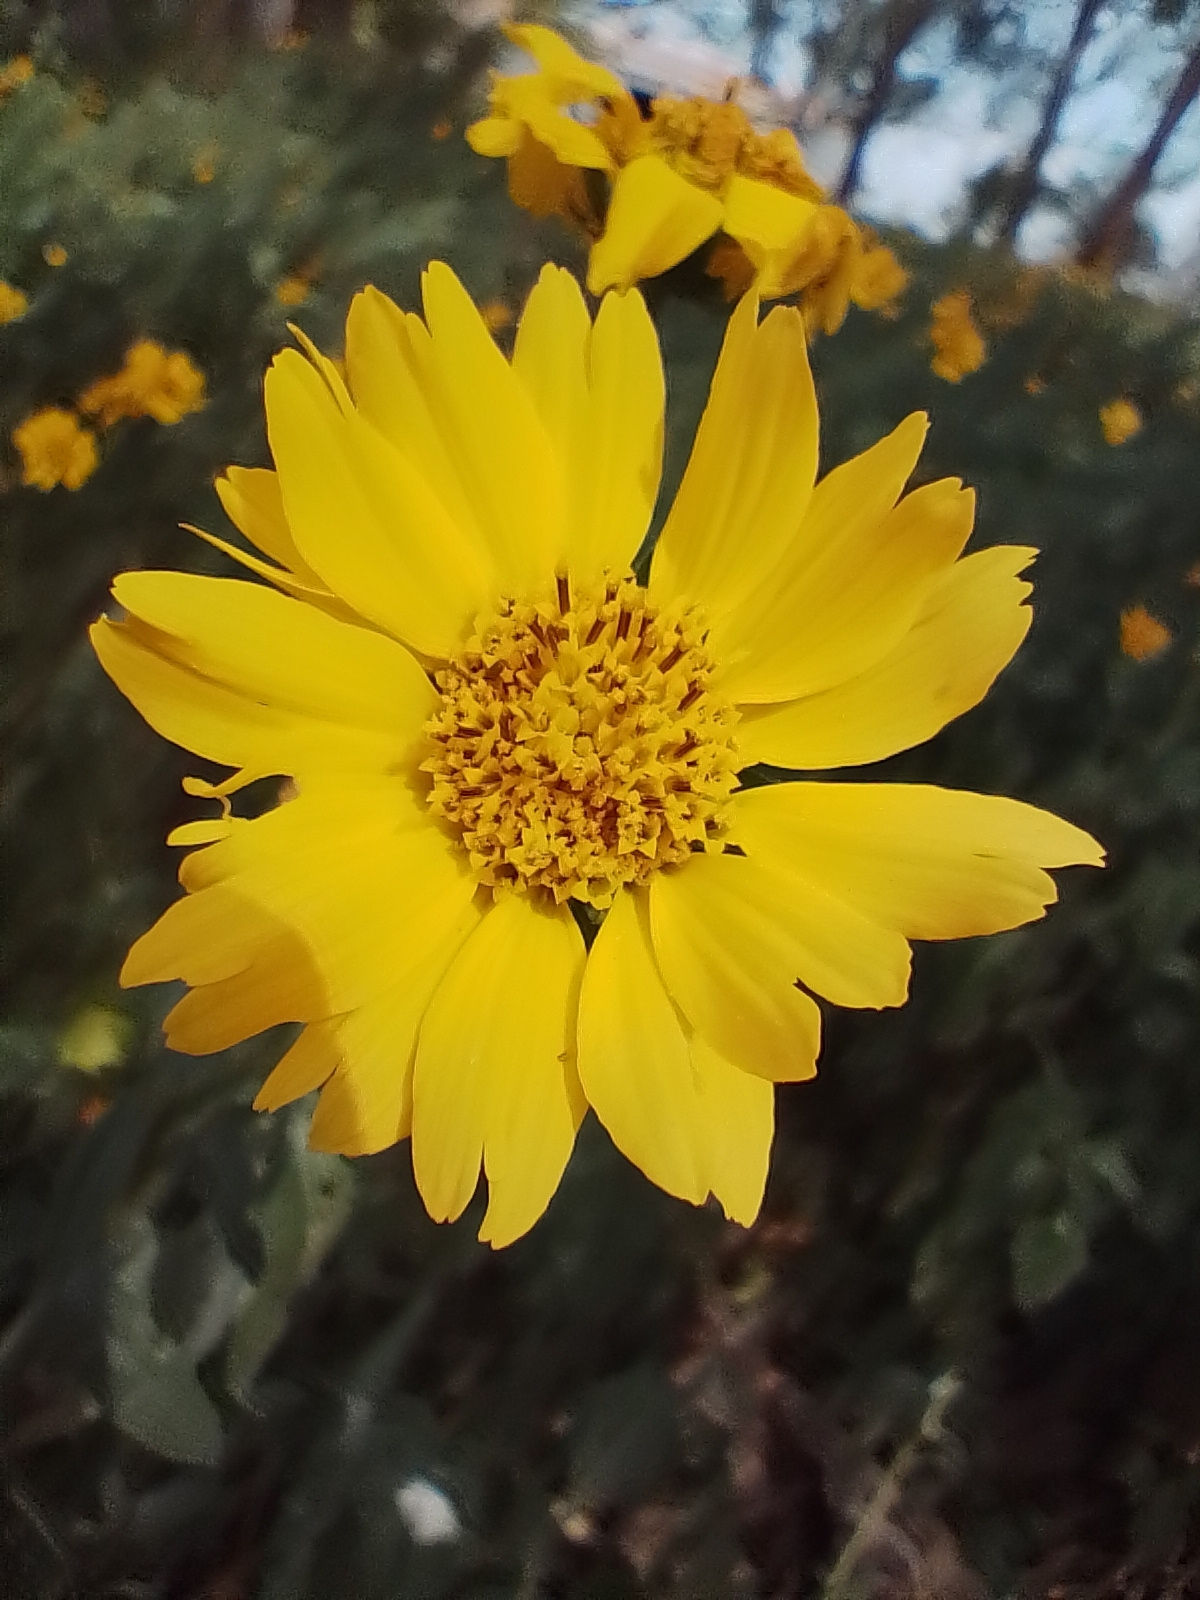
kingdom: Plantae
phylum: Tracheophyta
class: Magnoliopsida
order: Asterales
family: Asteraceae
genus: Verbesina
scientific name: Verbesina encelioides
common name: Golden crownbeard
